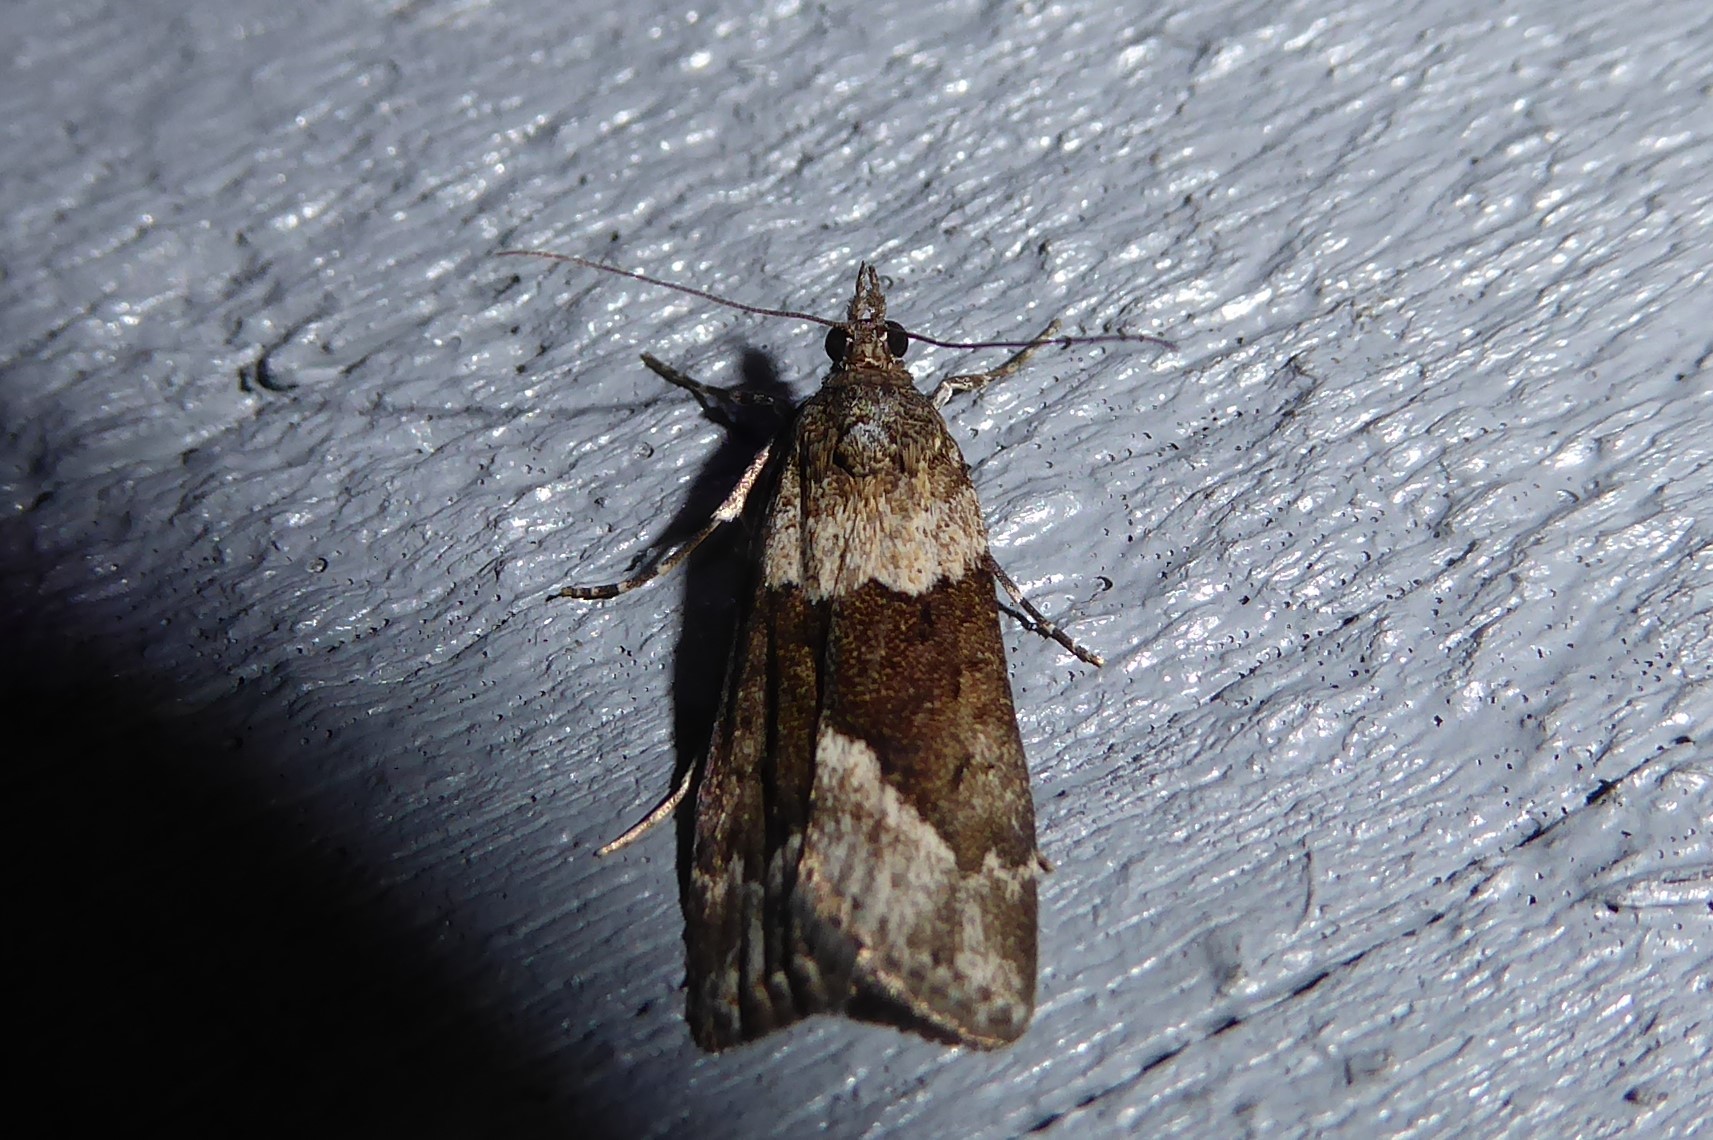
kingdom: Animalia
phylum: Arthropoda
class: Insecta
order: Lepidoptera
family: Crambidae
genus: Eudonia
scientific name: Eudonia submarginalis
